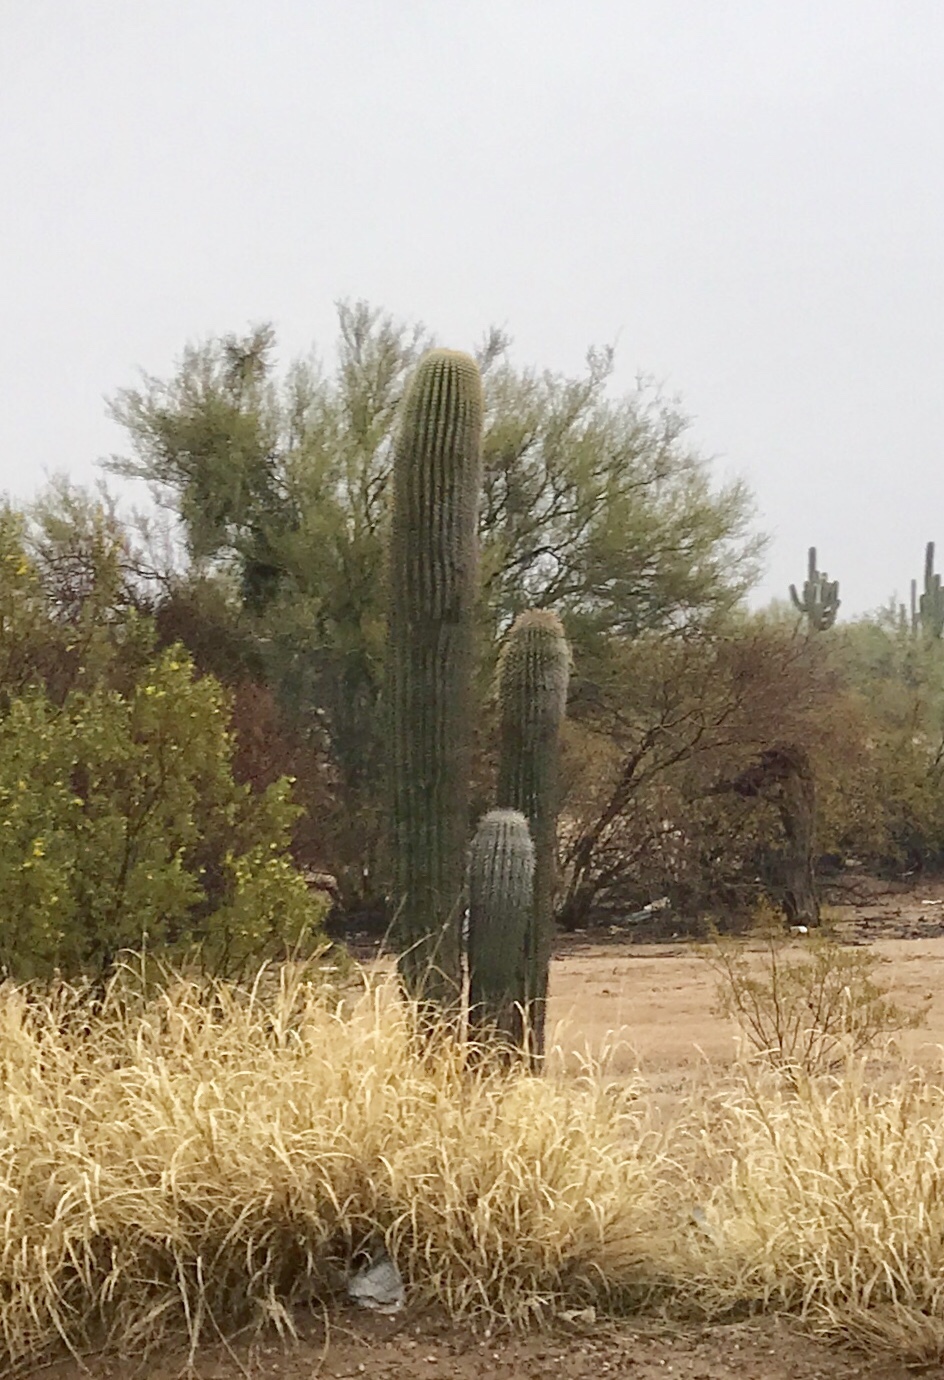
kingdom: Plantae
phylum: Tracheophyta
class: Magnoliopsida
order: Caryophyllales
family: Cactaceae
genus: Carnegiea
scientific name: Carnegiea gigantea
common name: Saguaro
